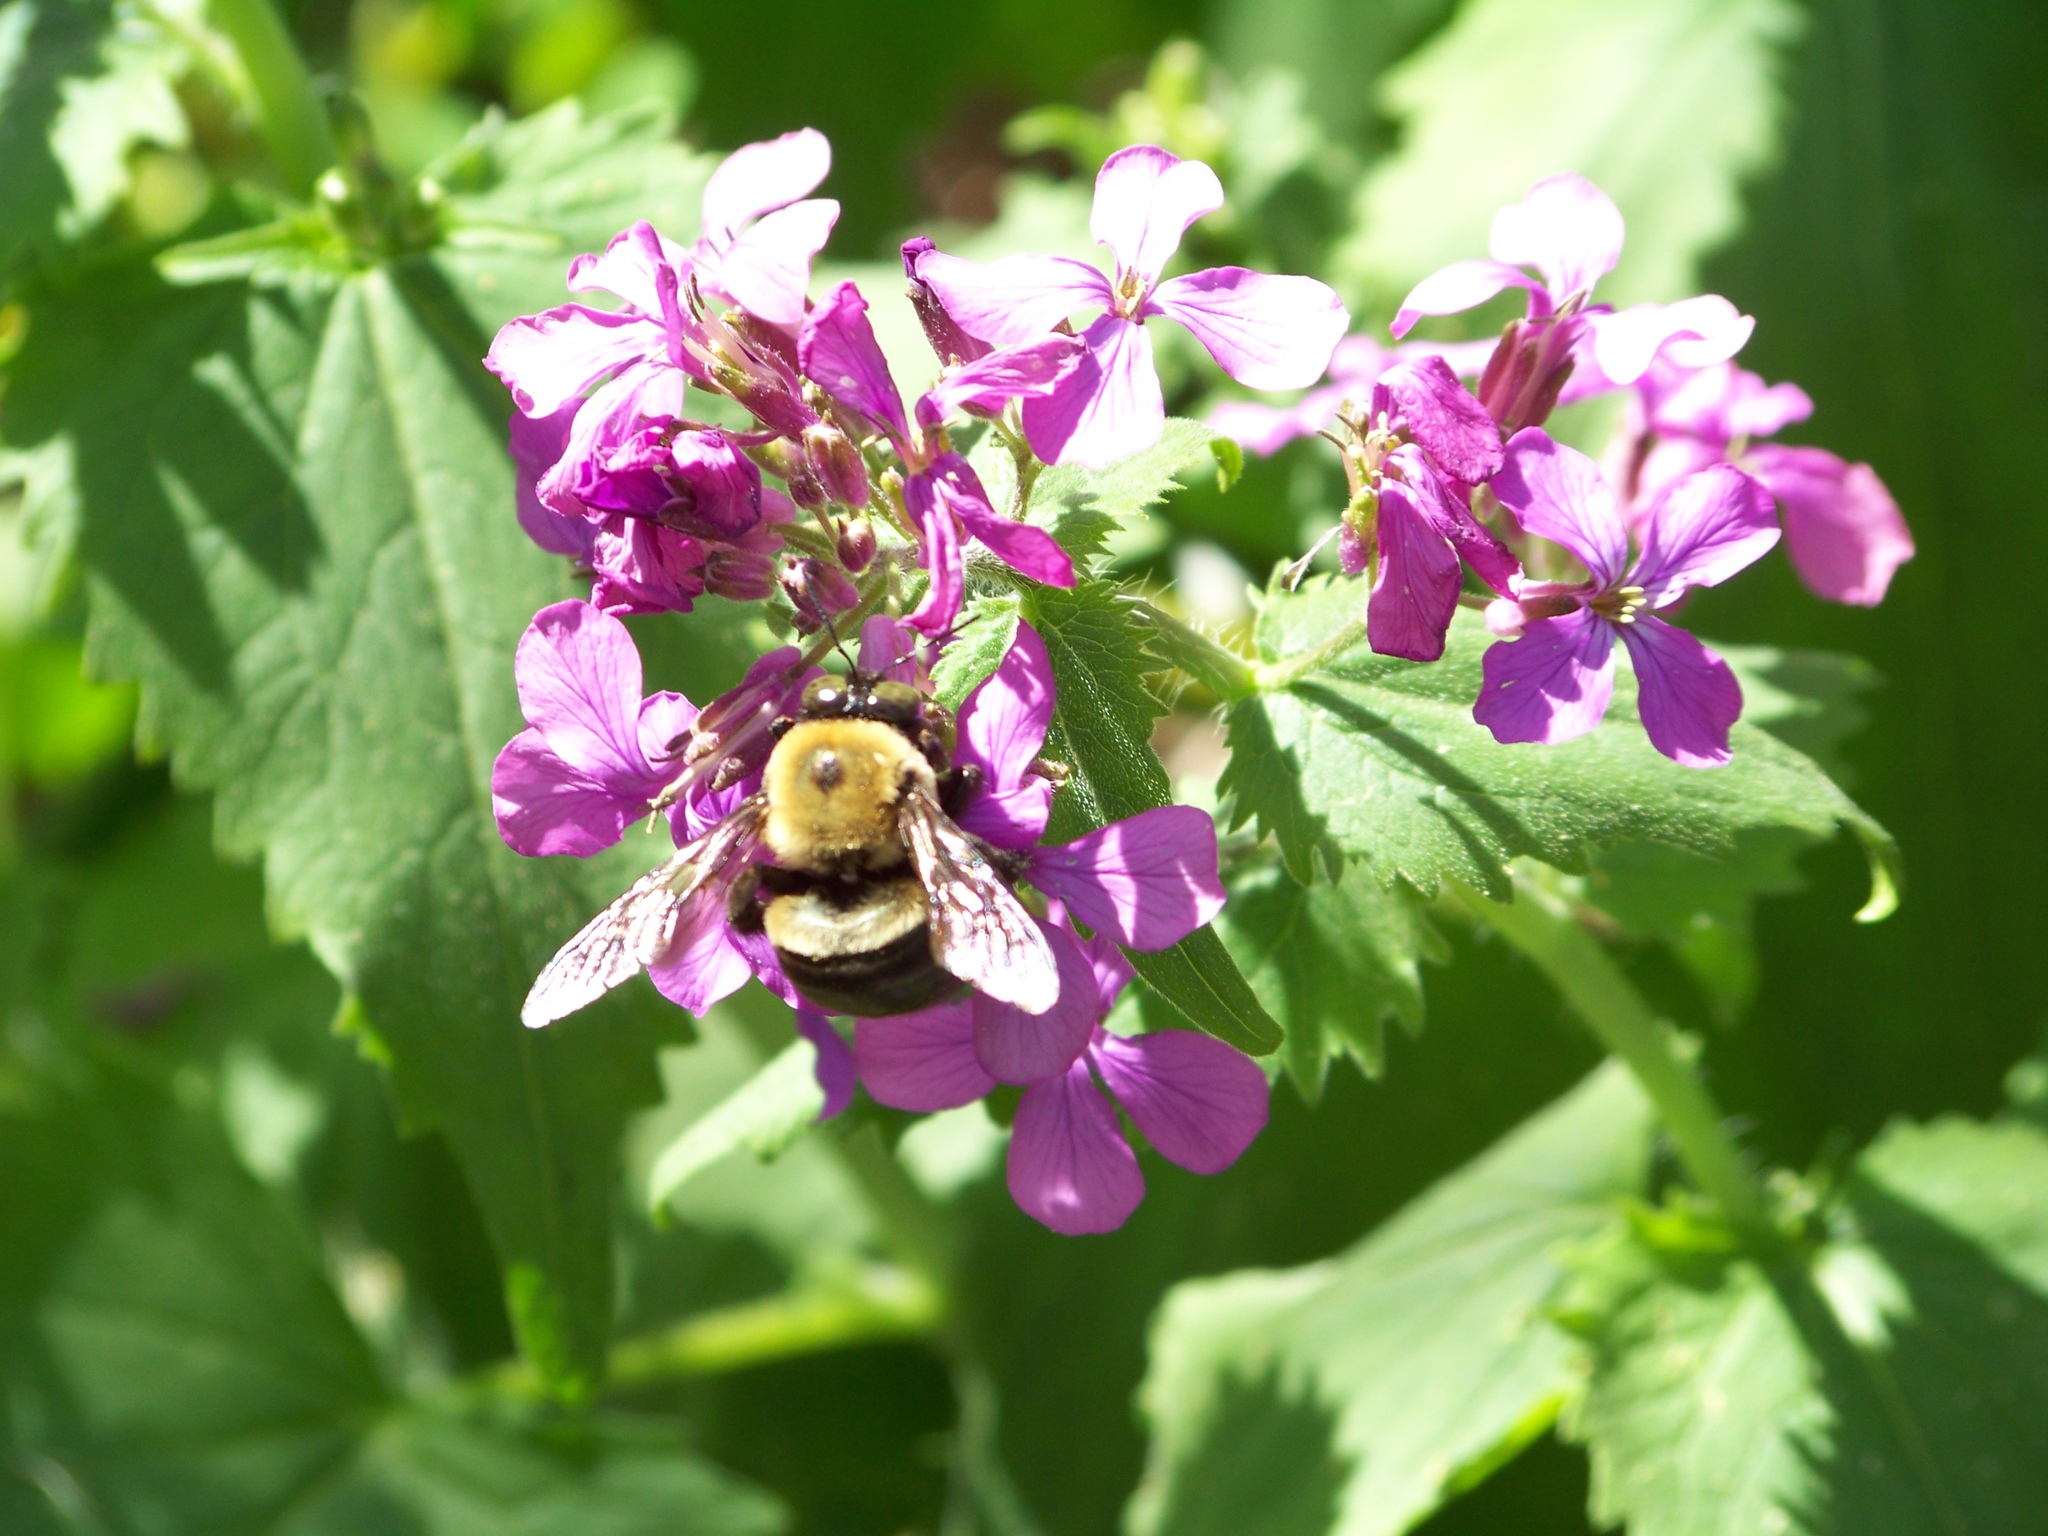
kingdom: Animalia
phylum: Arthropoda
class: Insecta
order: Hymenoptera
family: Apidae
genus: Xylocopa
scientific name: Xylocopa virginica
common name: Carpenter bee
